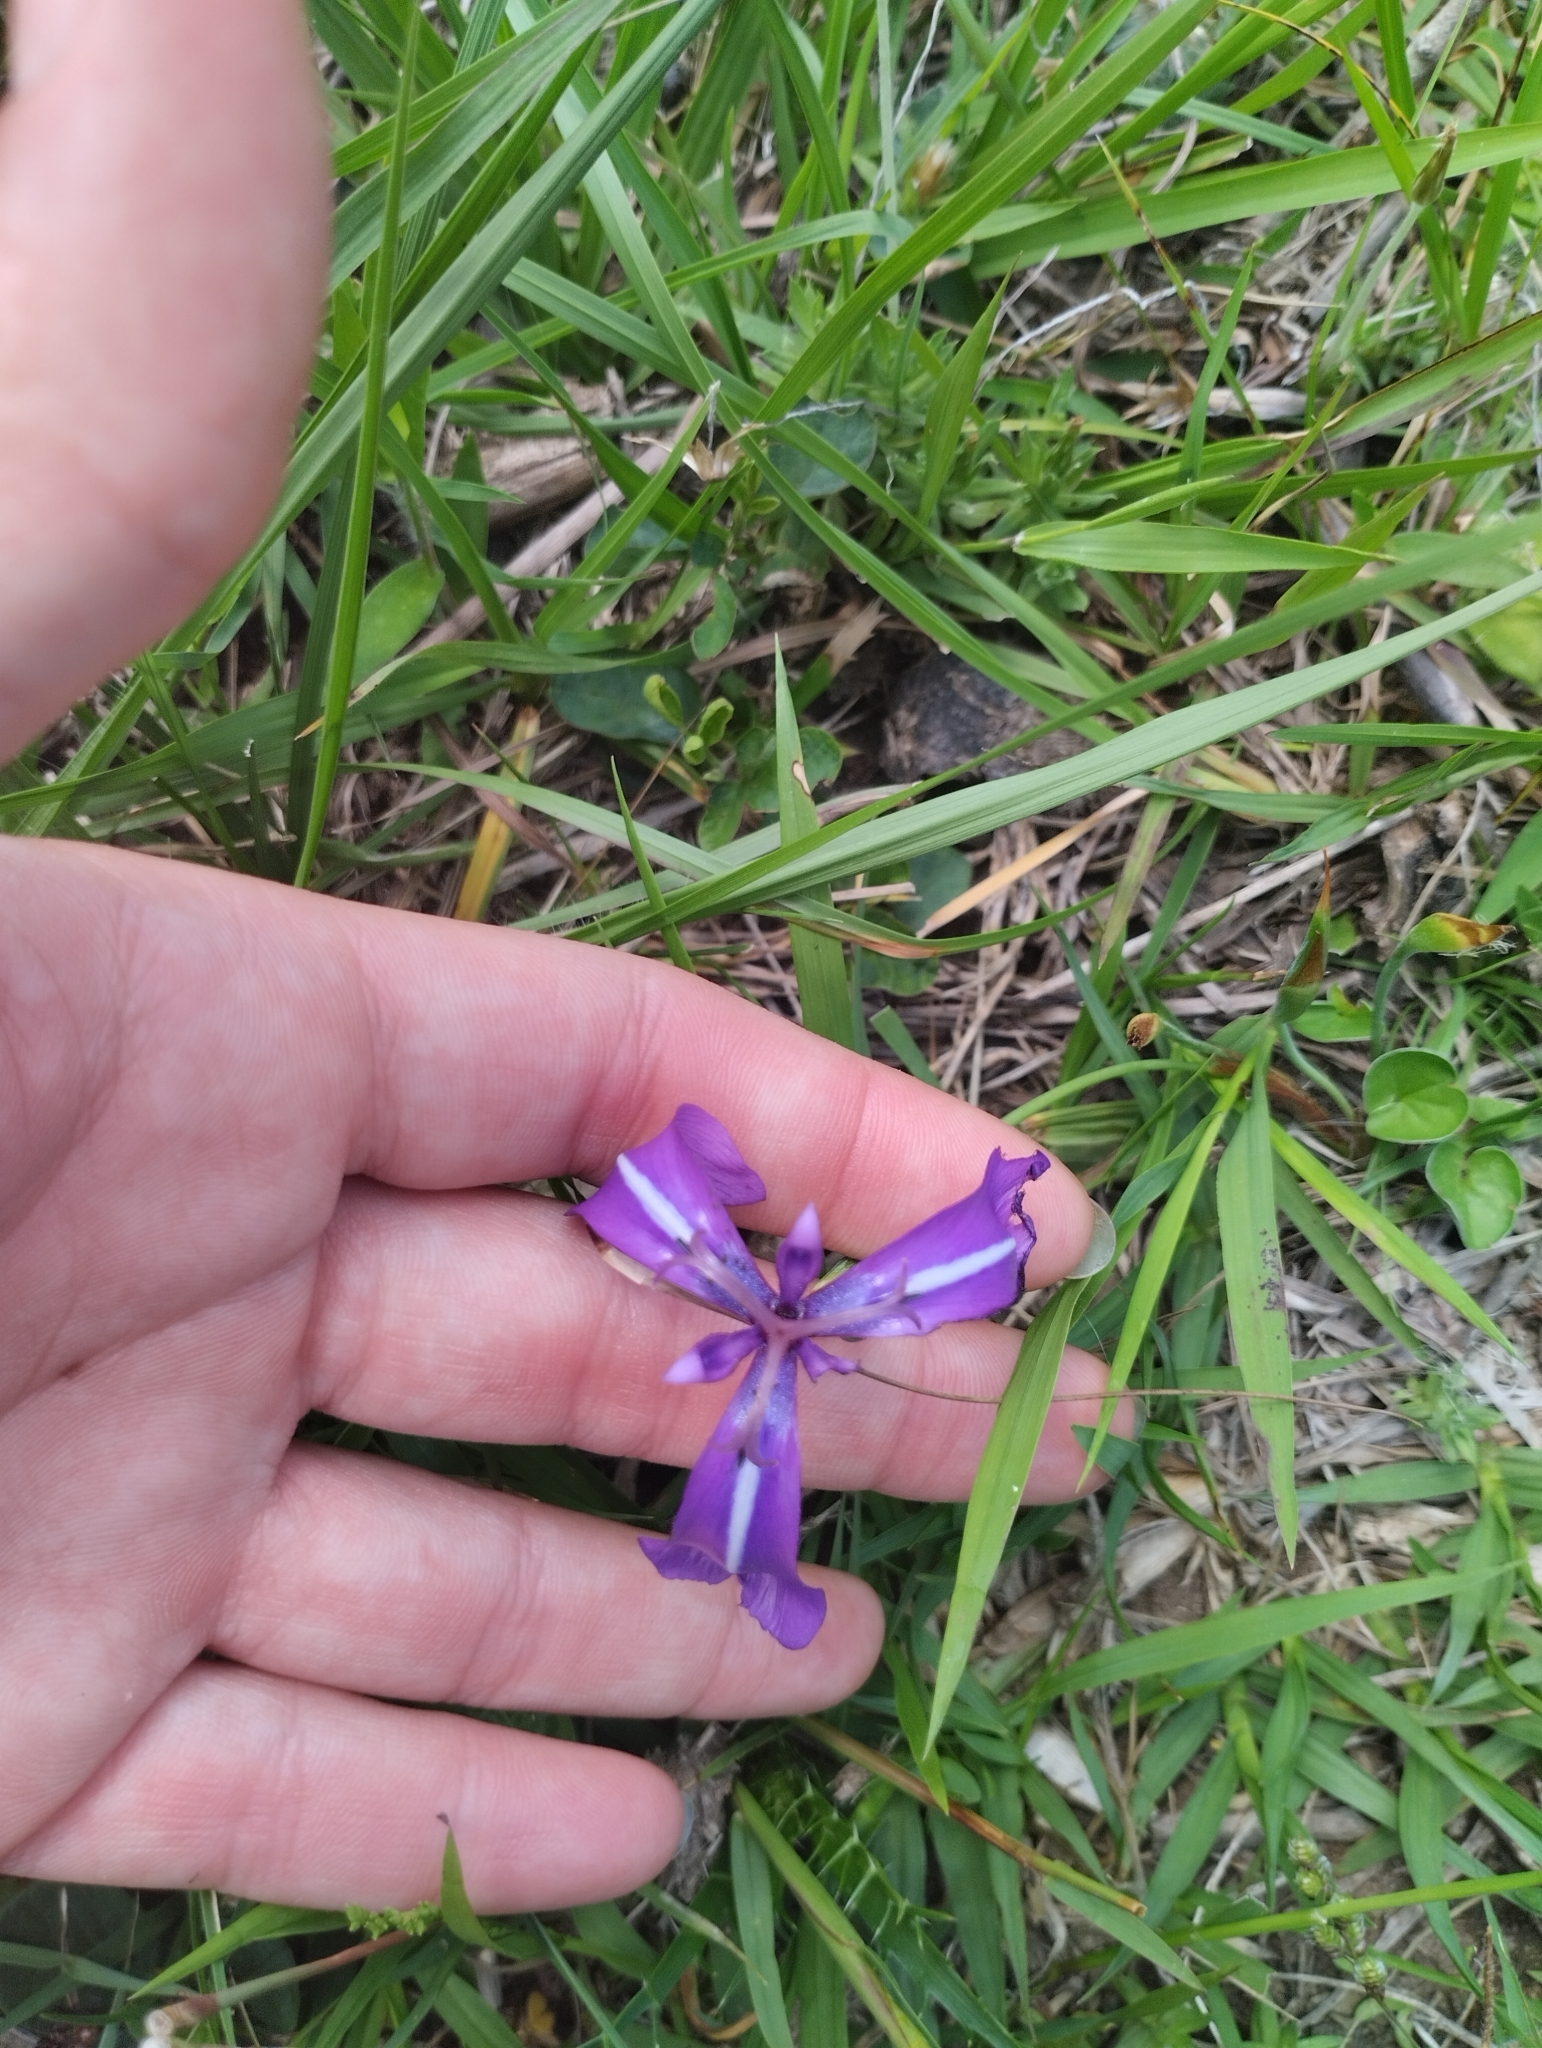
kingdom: Plantae
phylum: Tracheophyta
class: Liliopsida
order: Asparagales
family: Iridaceae
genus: Herbertia
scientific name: Herbertia pulchella
